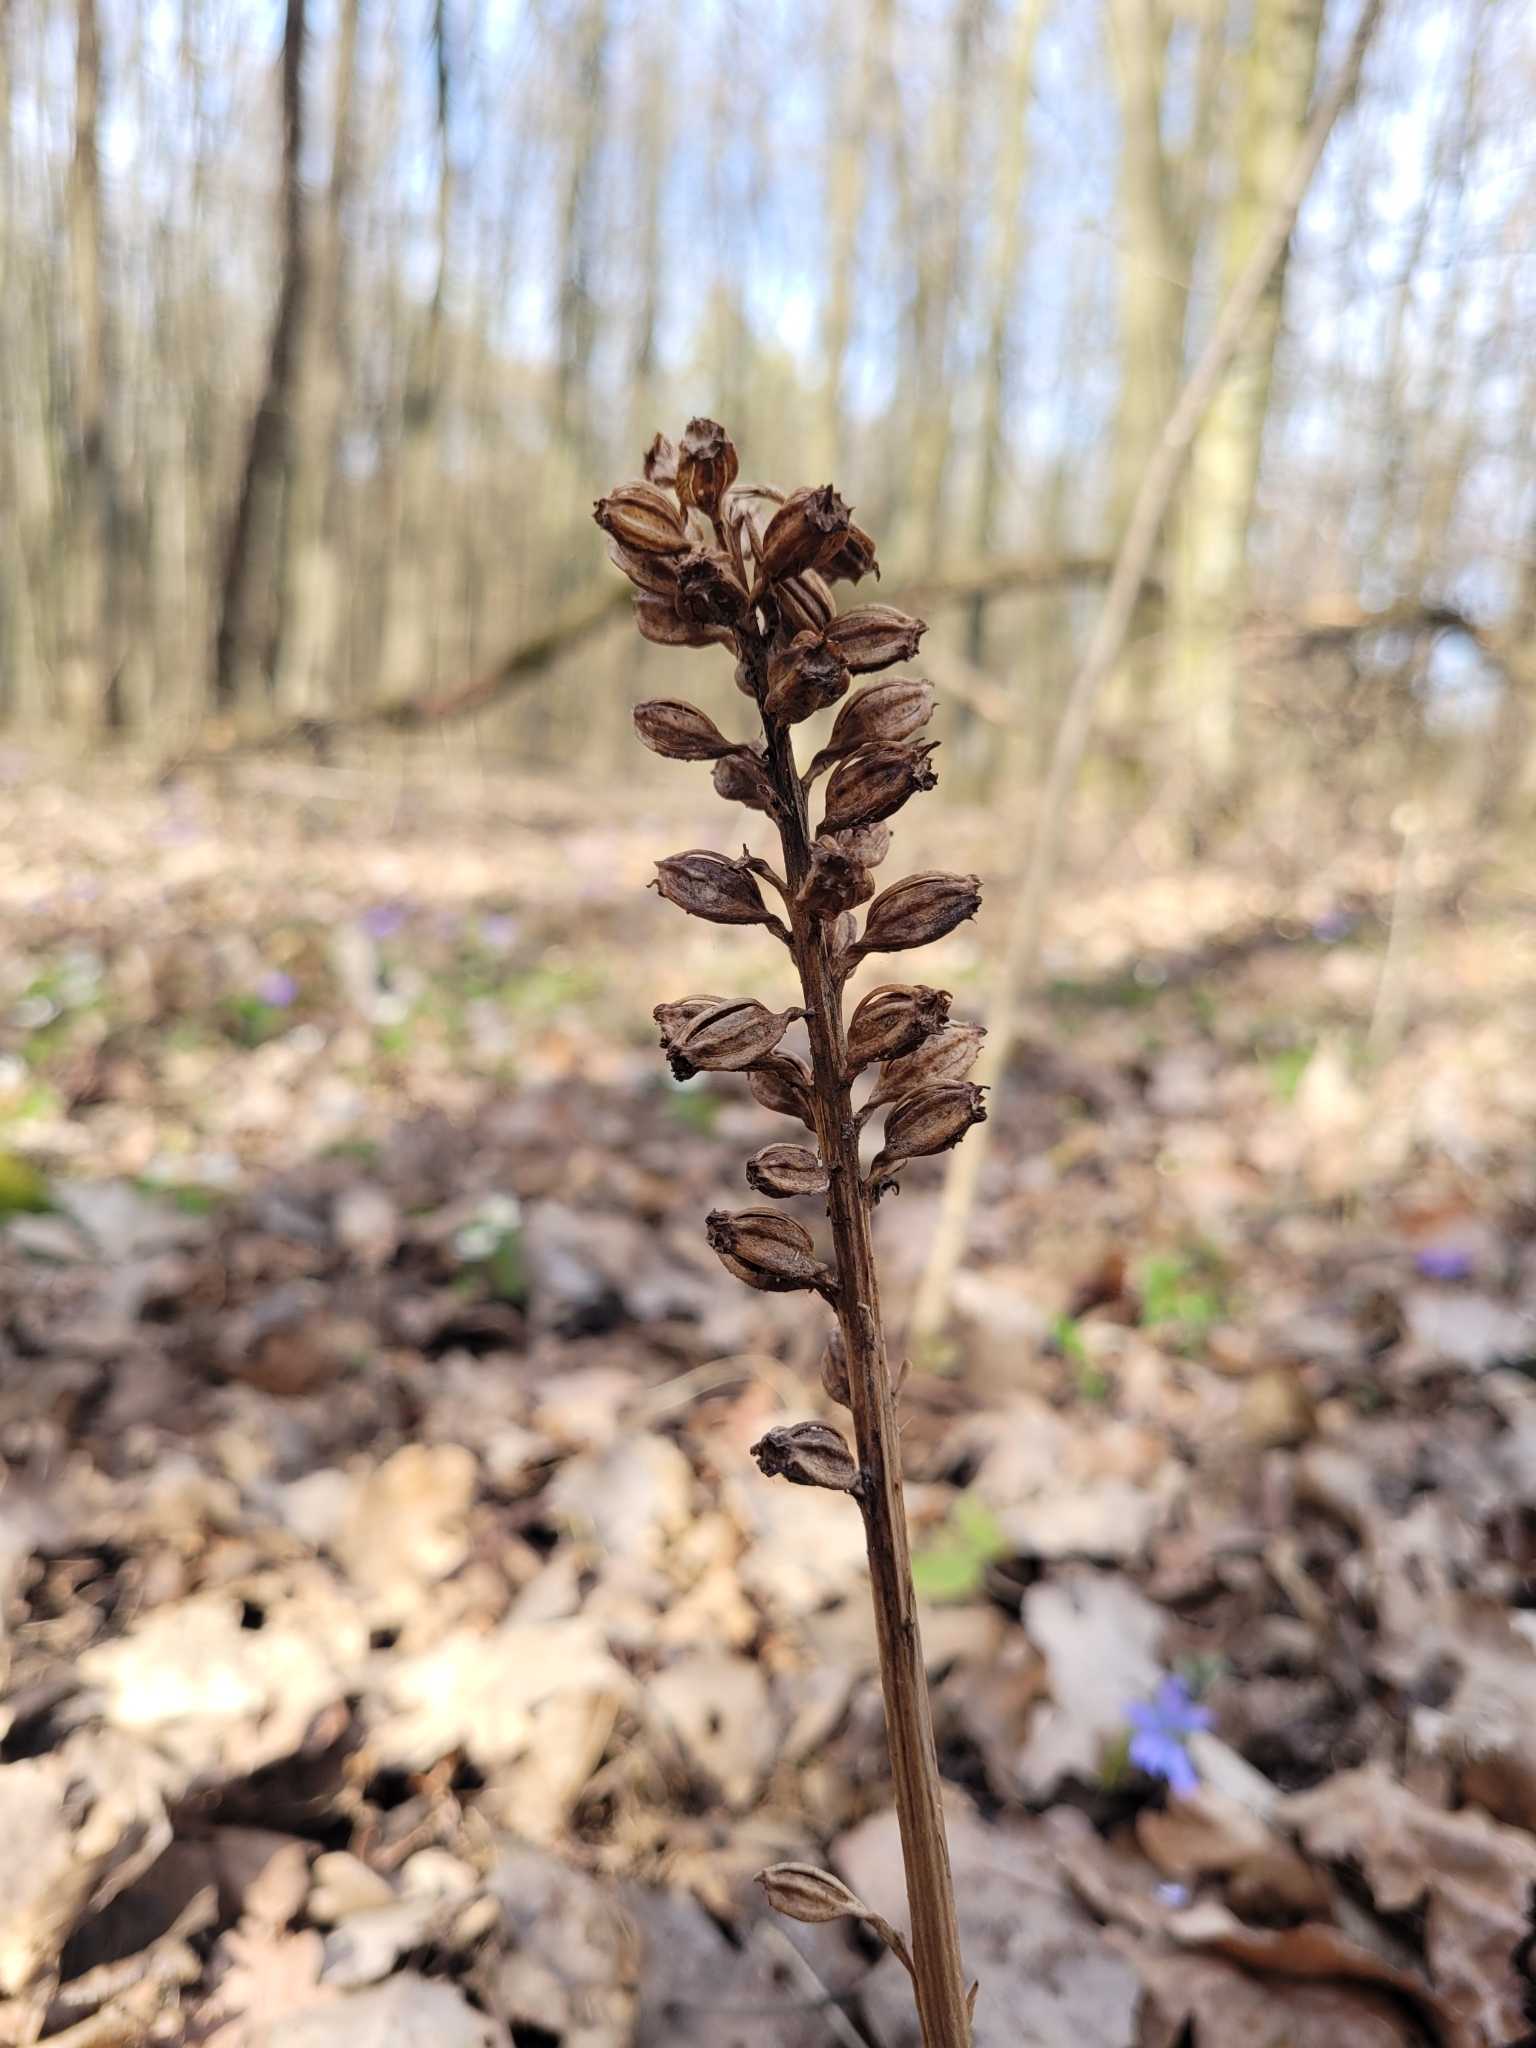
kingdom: Plantae
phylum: Tracheophyta
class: Liliopsida
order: Asparagales
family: Orchidaceae
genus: Neottia
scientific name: Neottia nidus-avis
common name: Bird's-nest orchid
